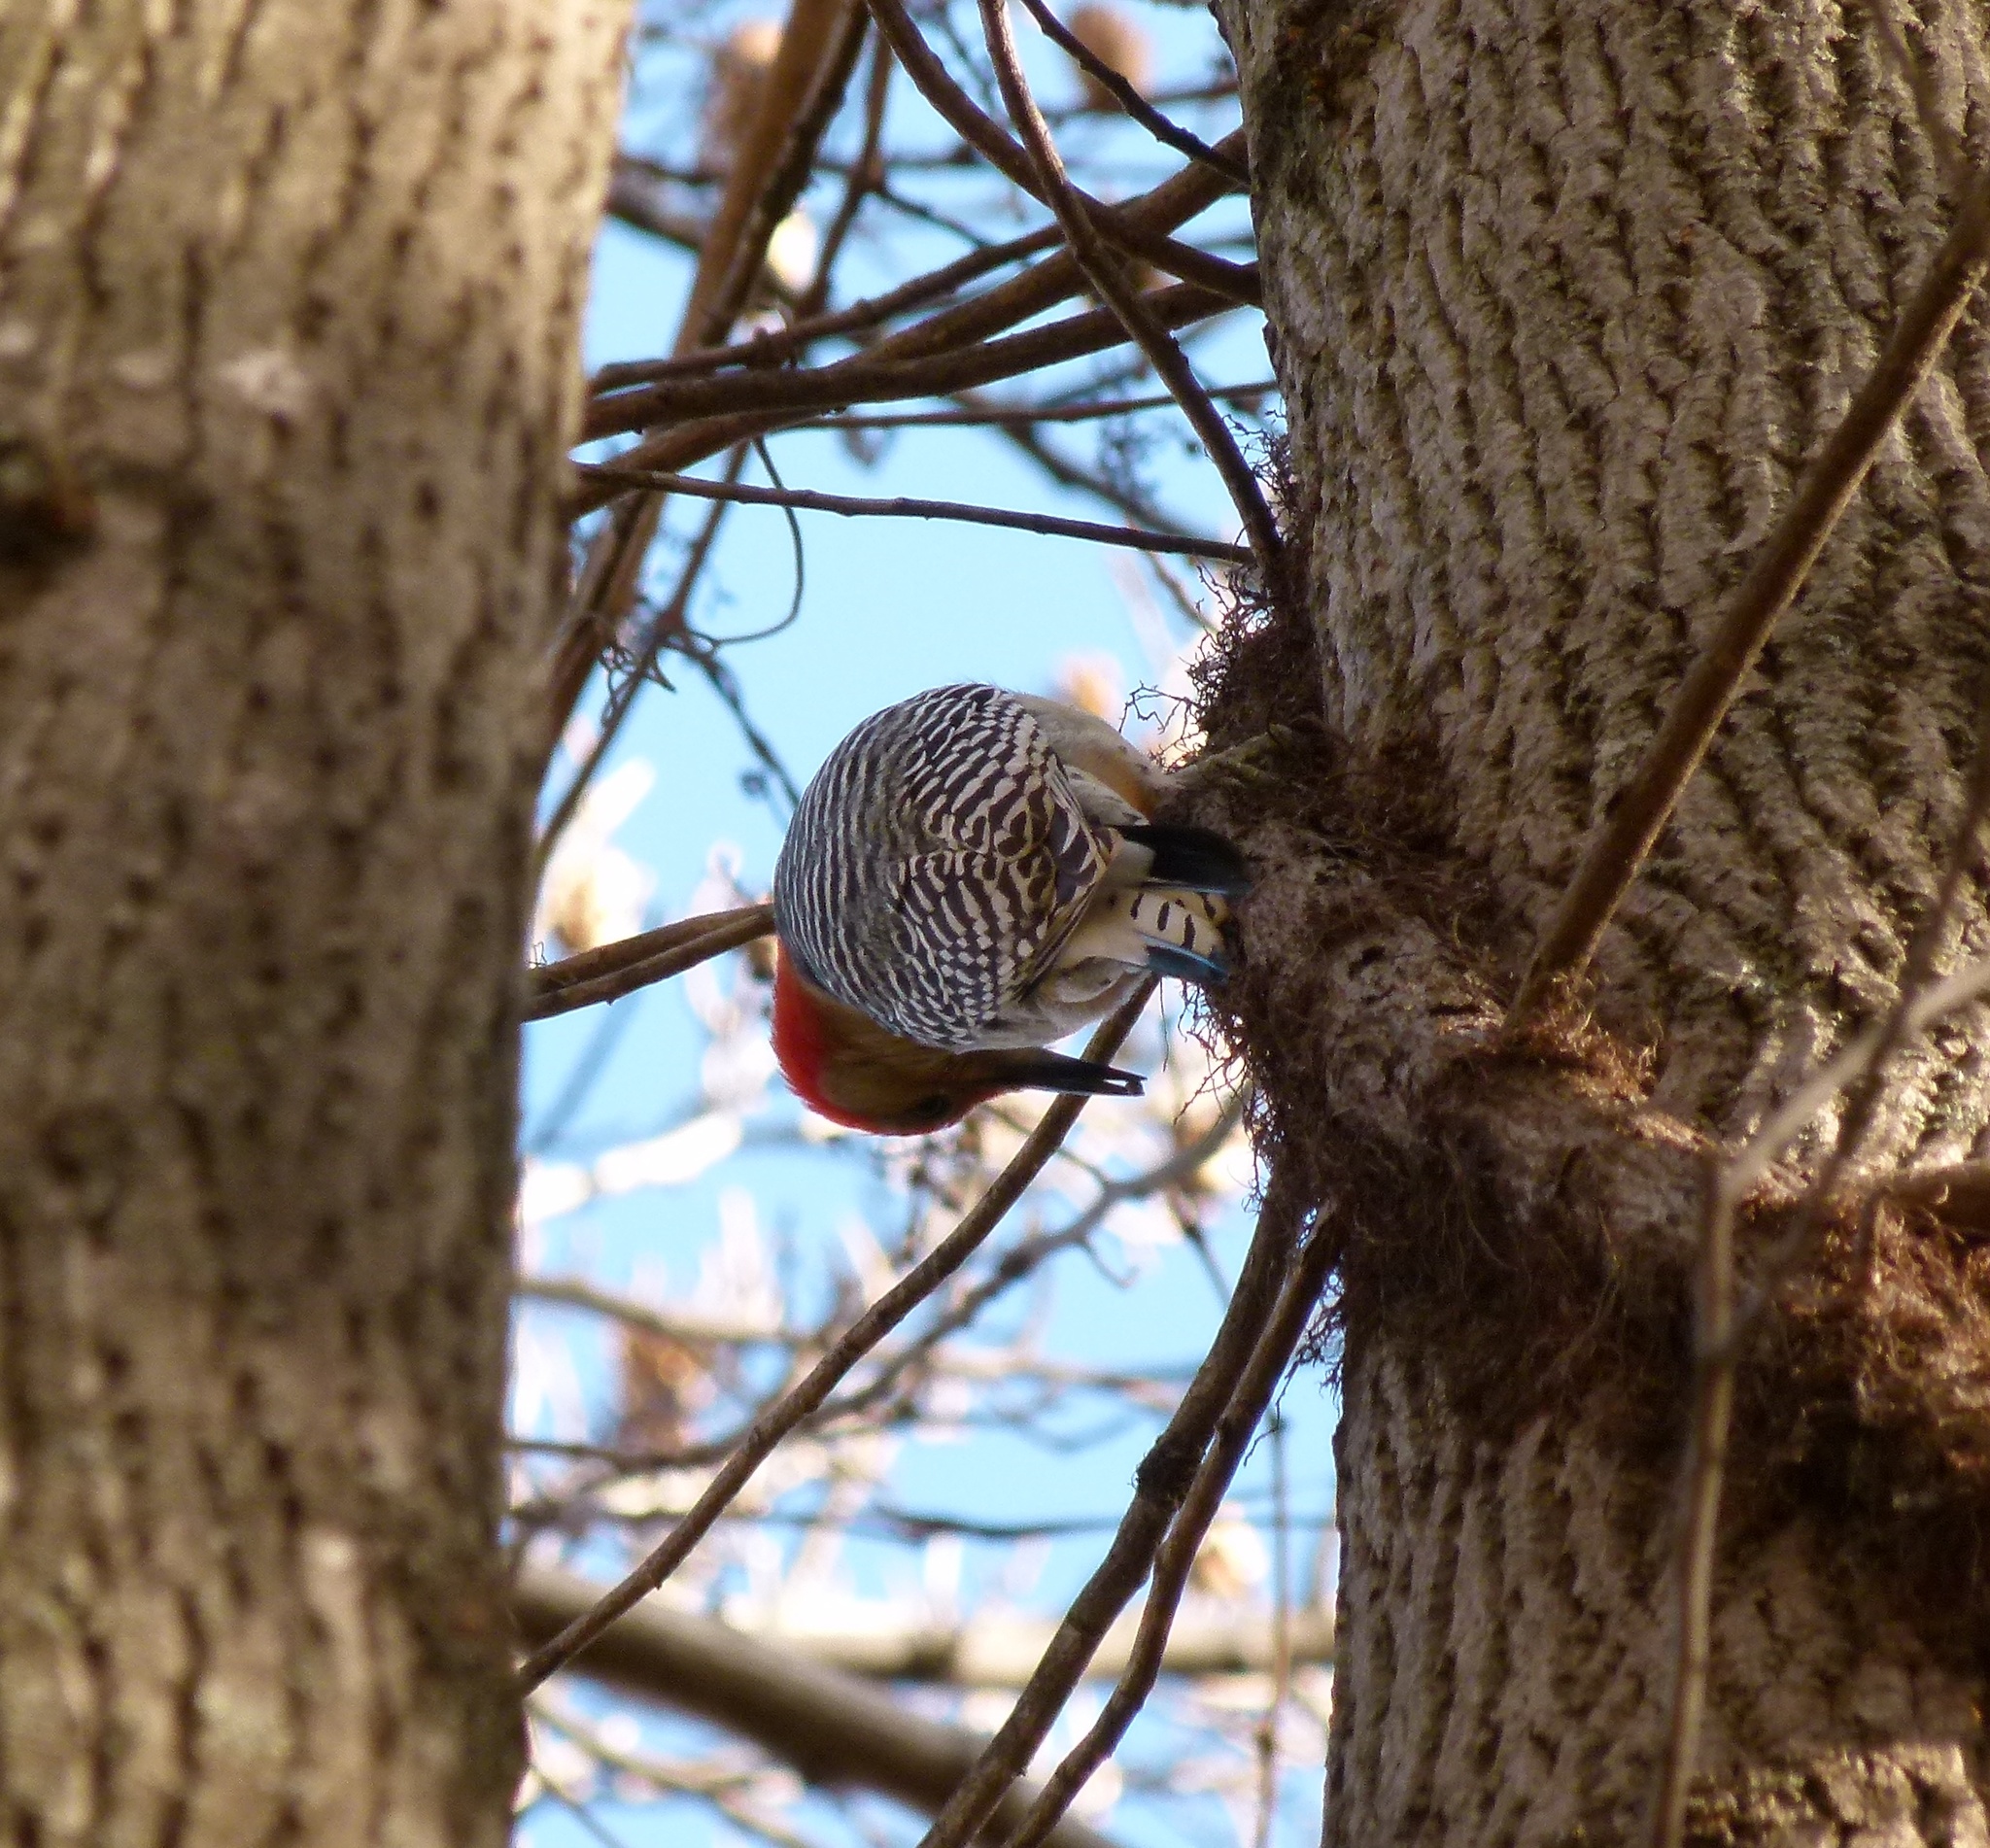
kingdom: Animalia
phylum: Chordata
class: Aves
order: Piciformes
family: Picidae
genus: Melanerpes
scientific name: Melanerpes carolinus
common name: Red-bellied woodpecker
